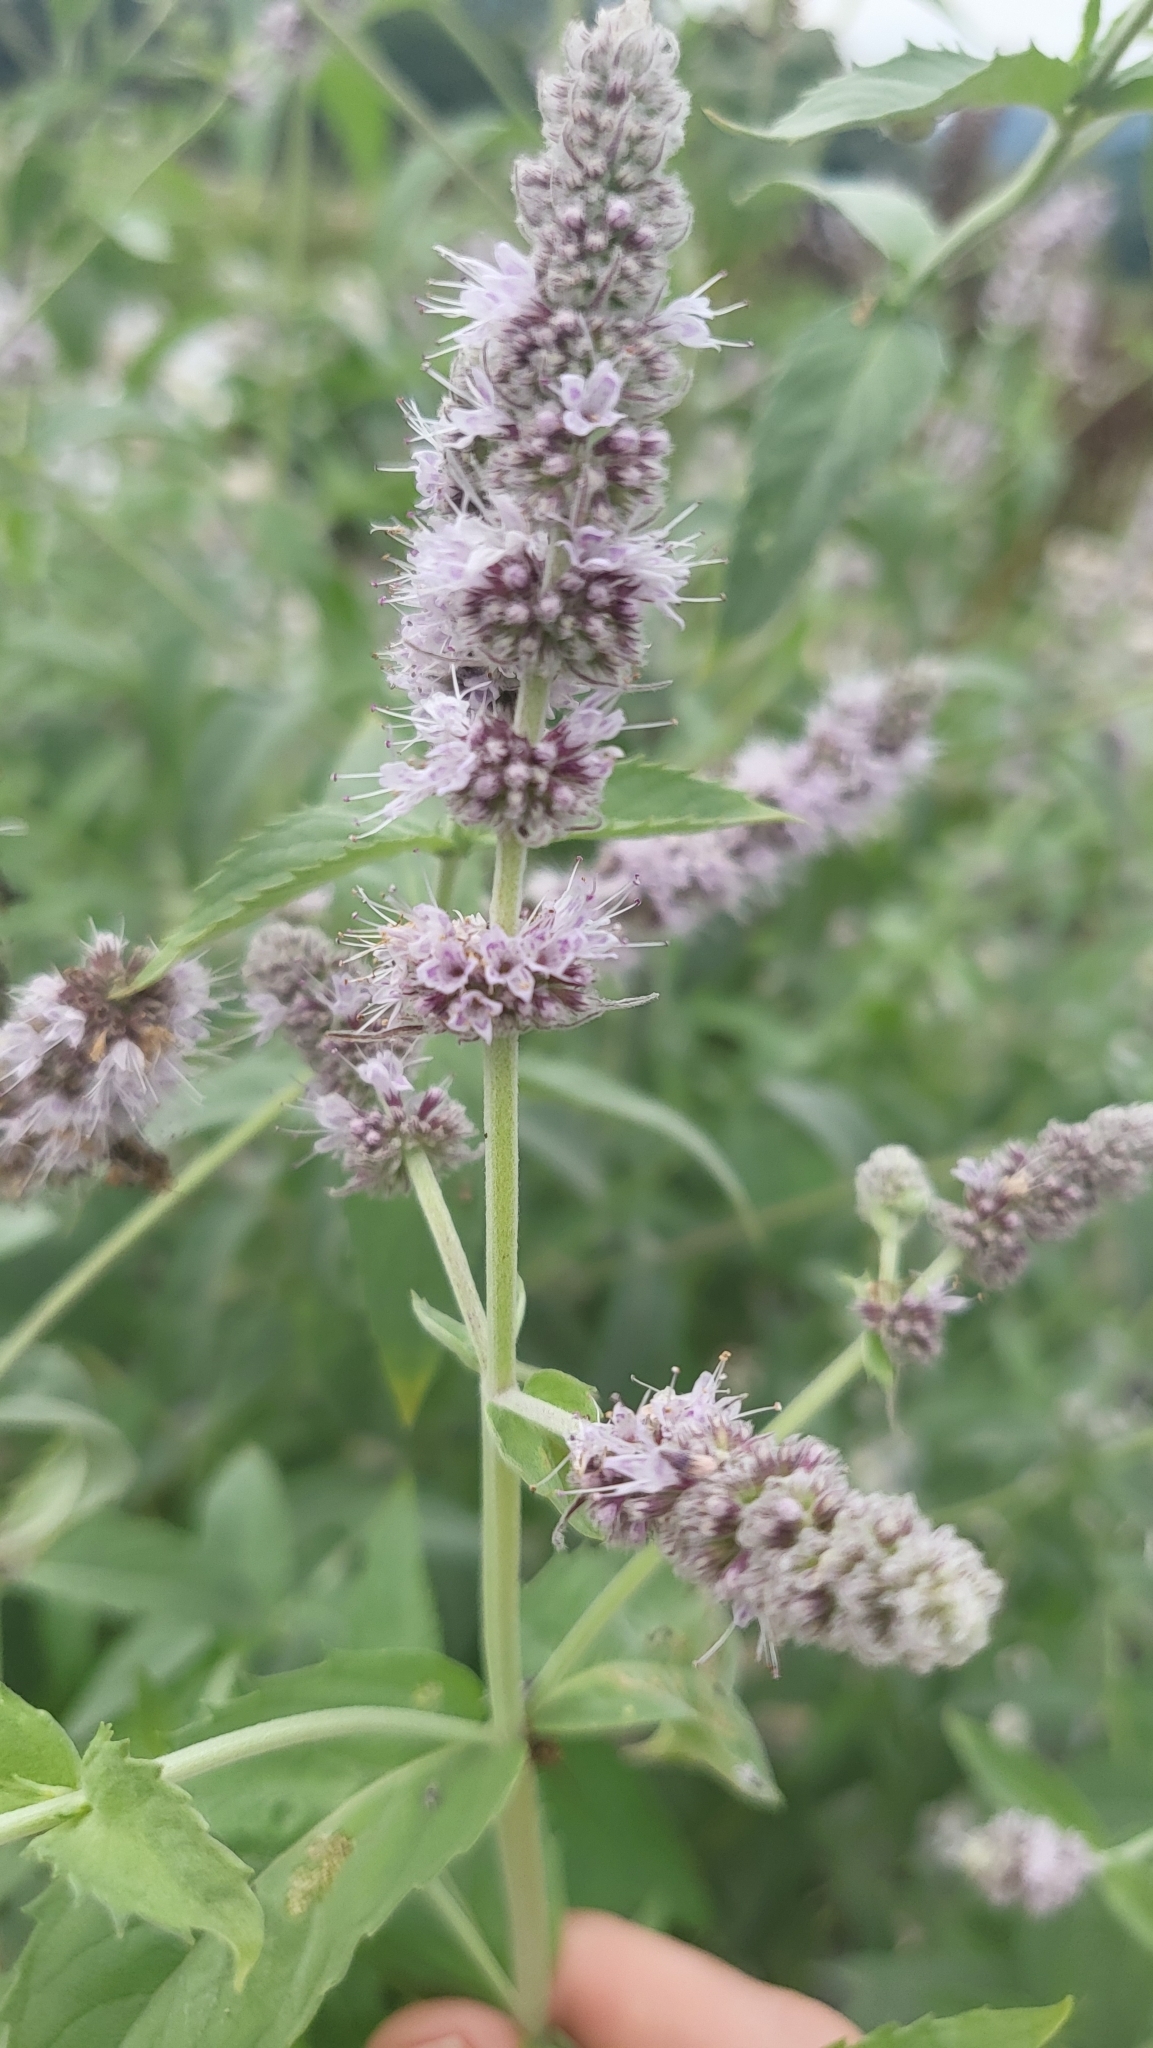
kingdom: Plantae
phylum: Tracheophyta
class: Magnoliopsida
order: Lamiales
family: Lamiaceae
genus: Mentha
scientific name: Mentha longifolia
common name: Horse mint
